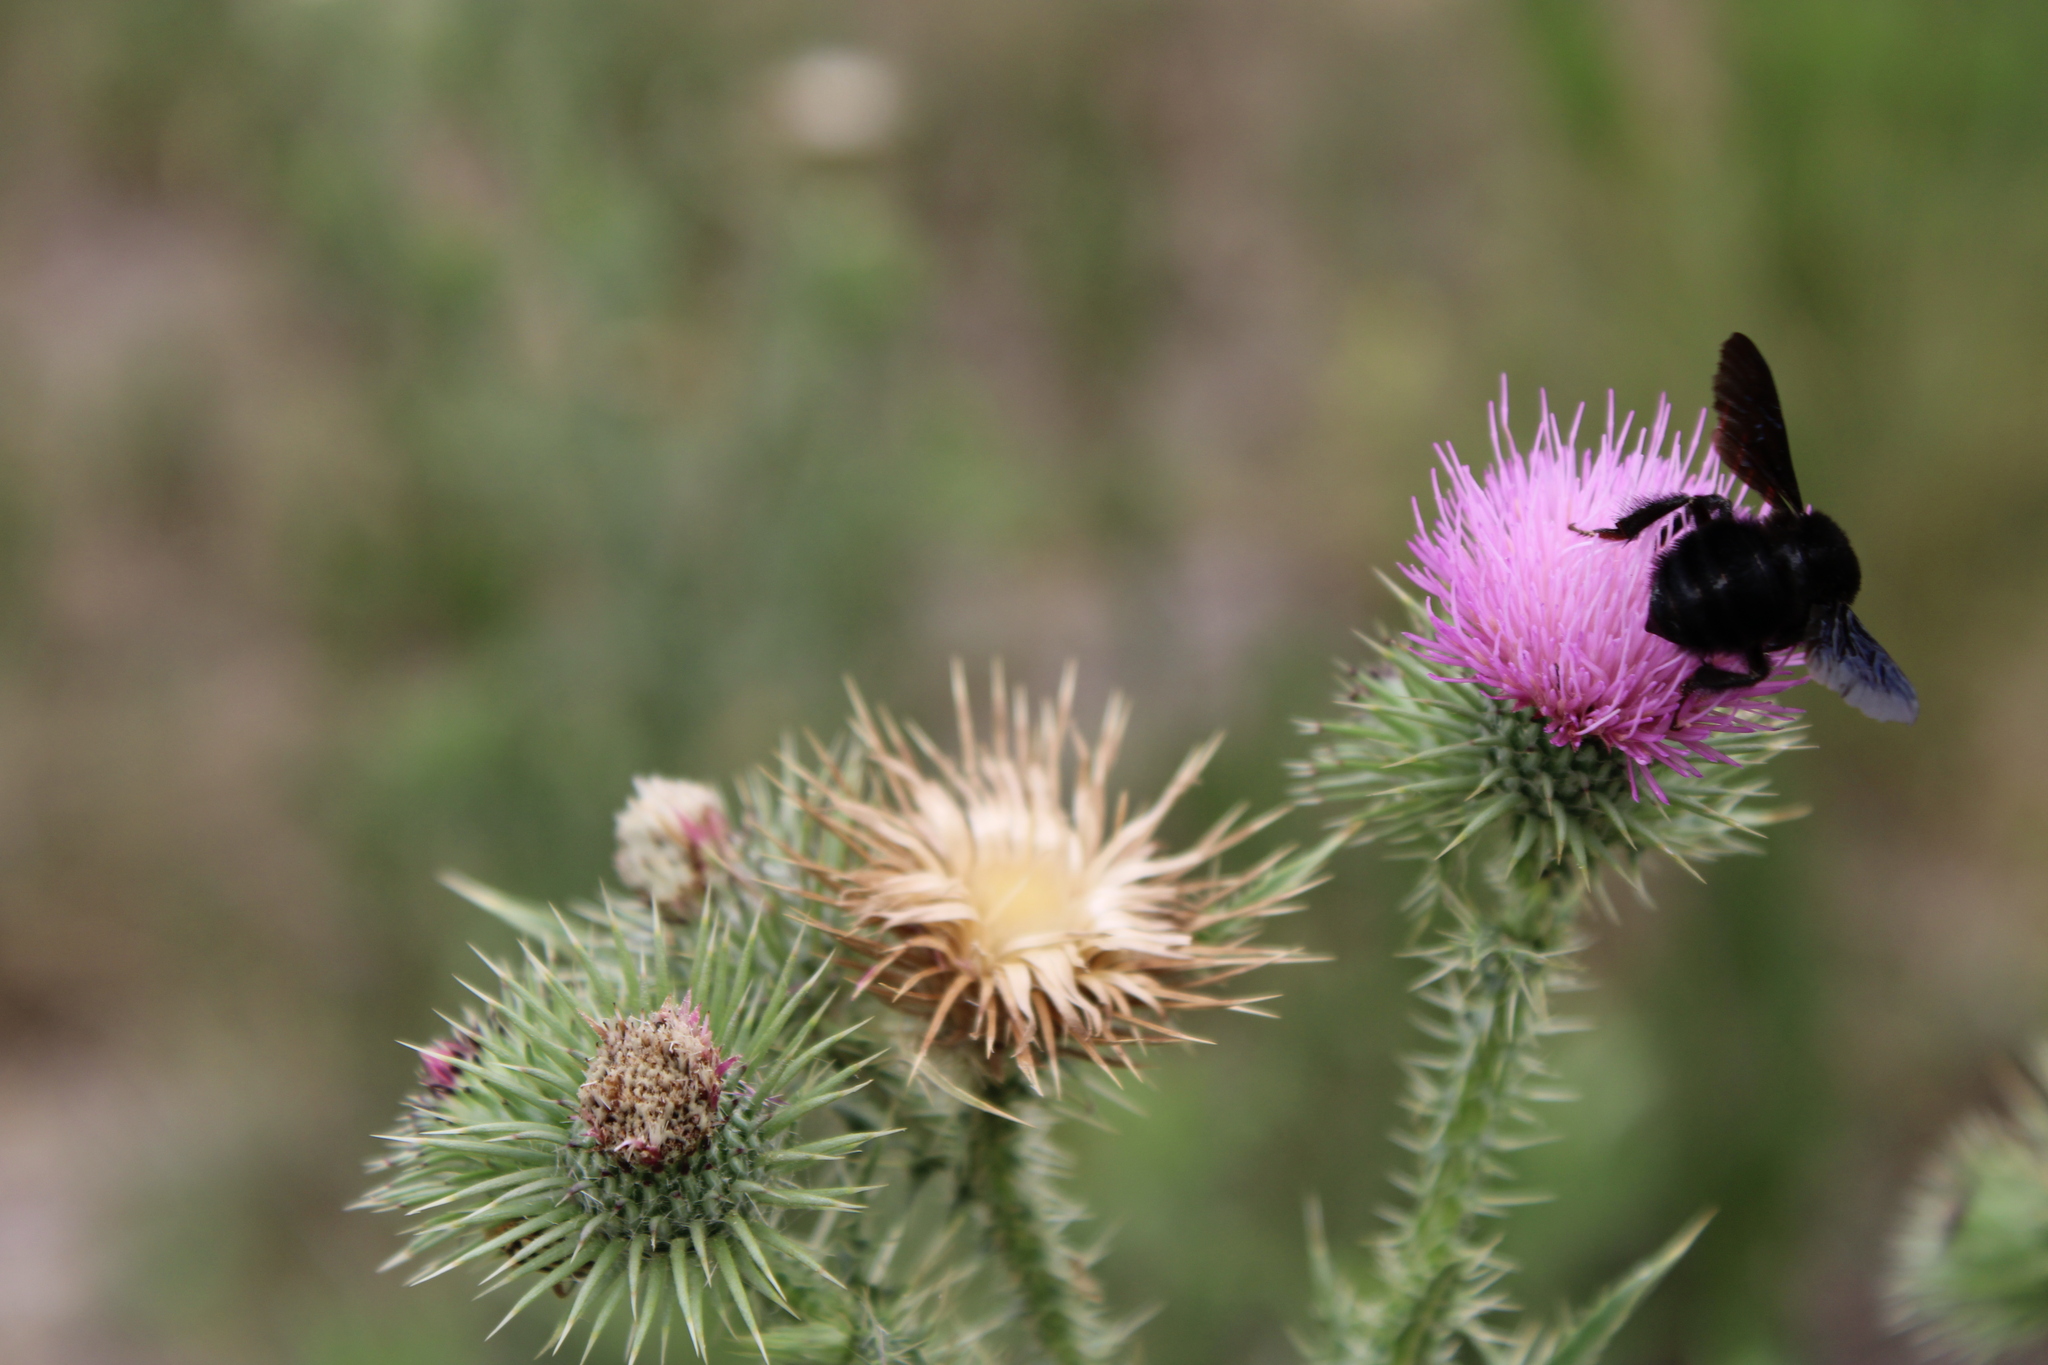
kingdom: Animalia
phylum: Arthropoda
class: Insecta
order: Hymenoptera
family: Apidae
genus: Bombus
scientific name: Bombus pauloensis
